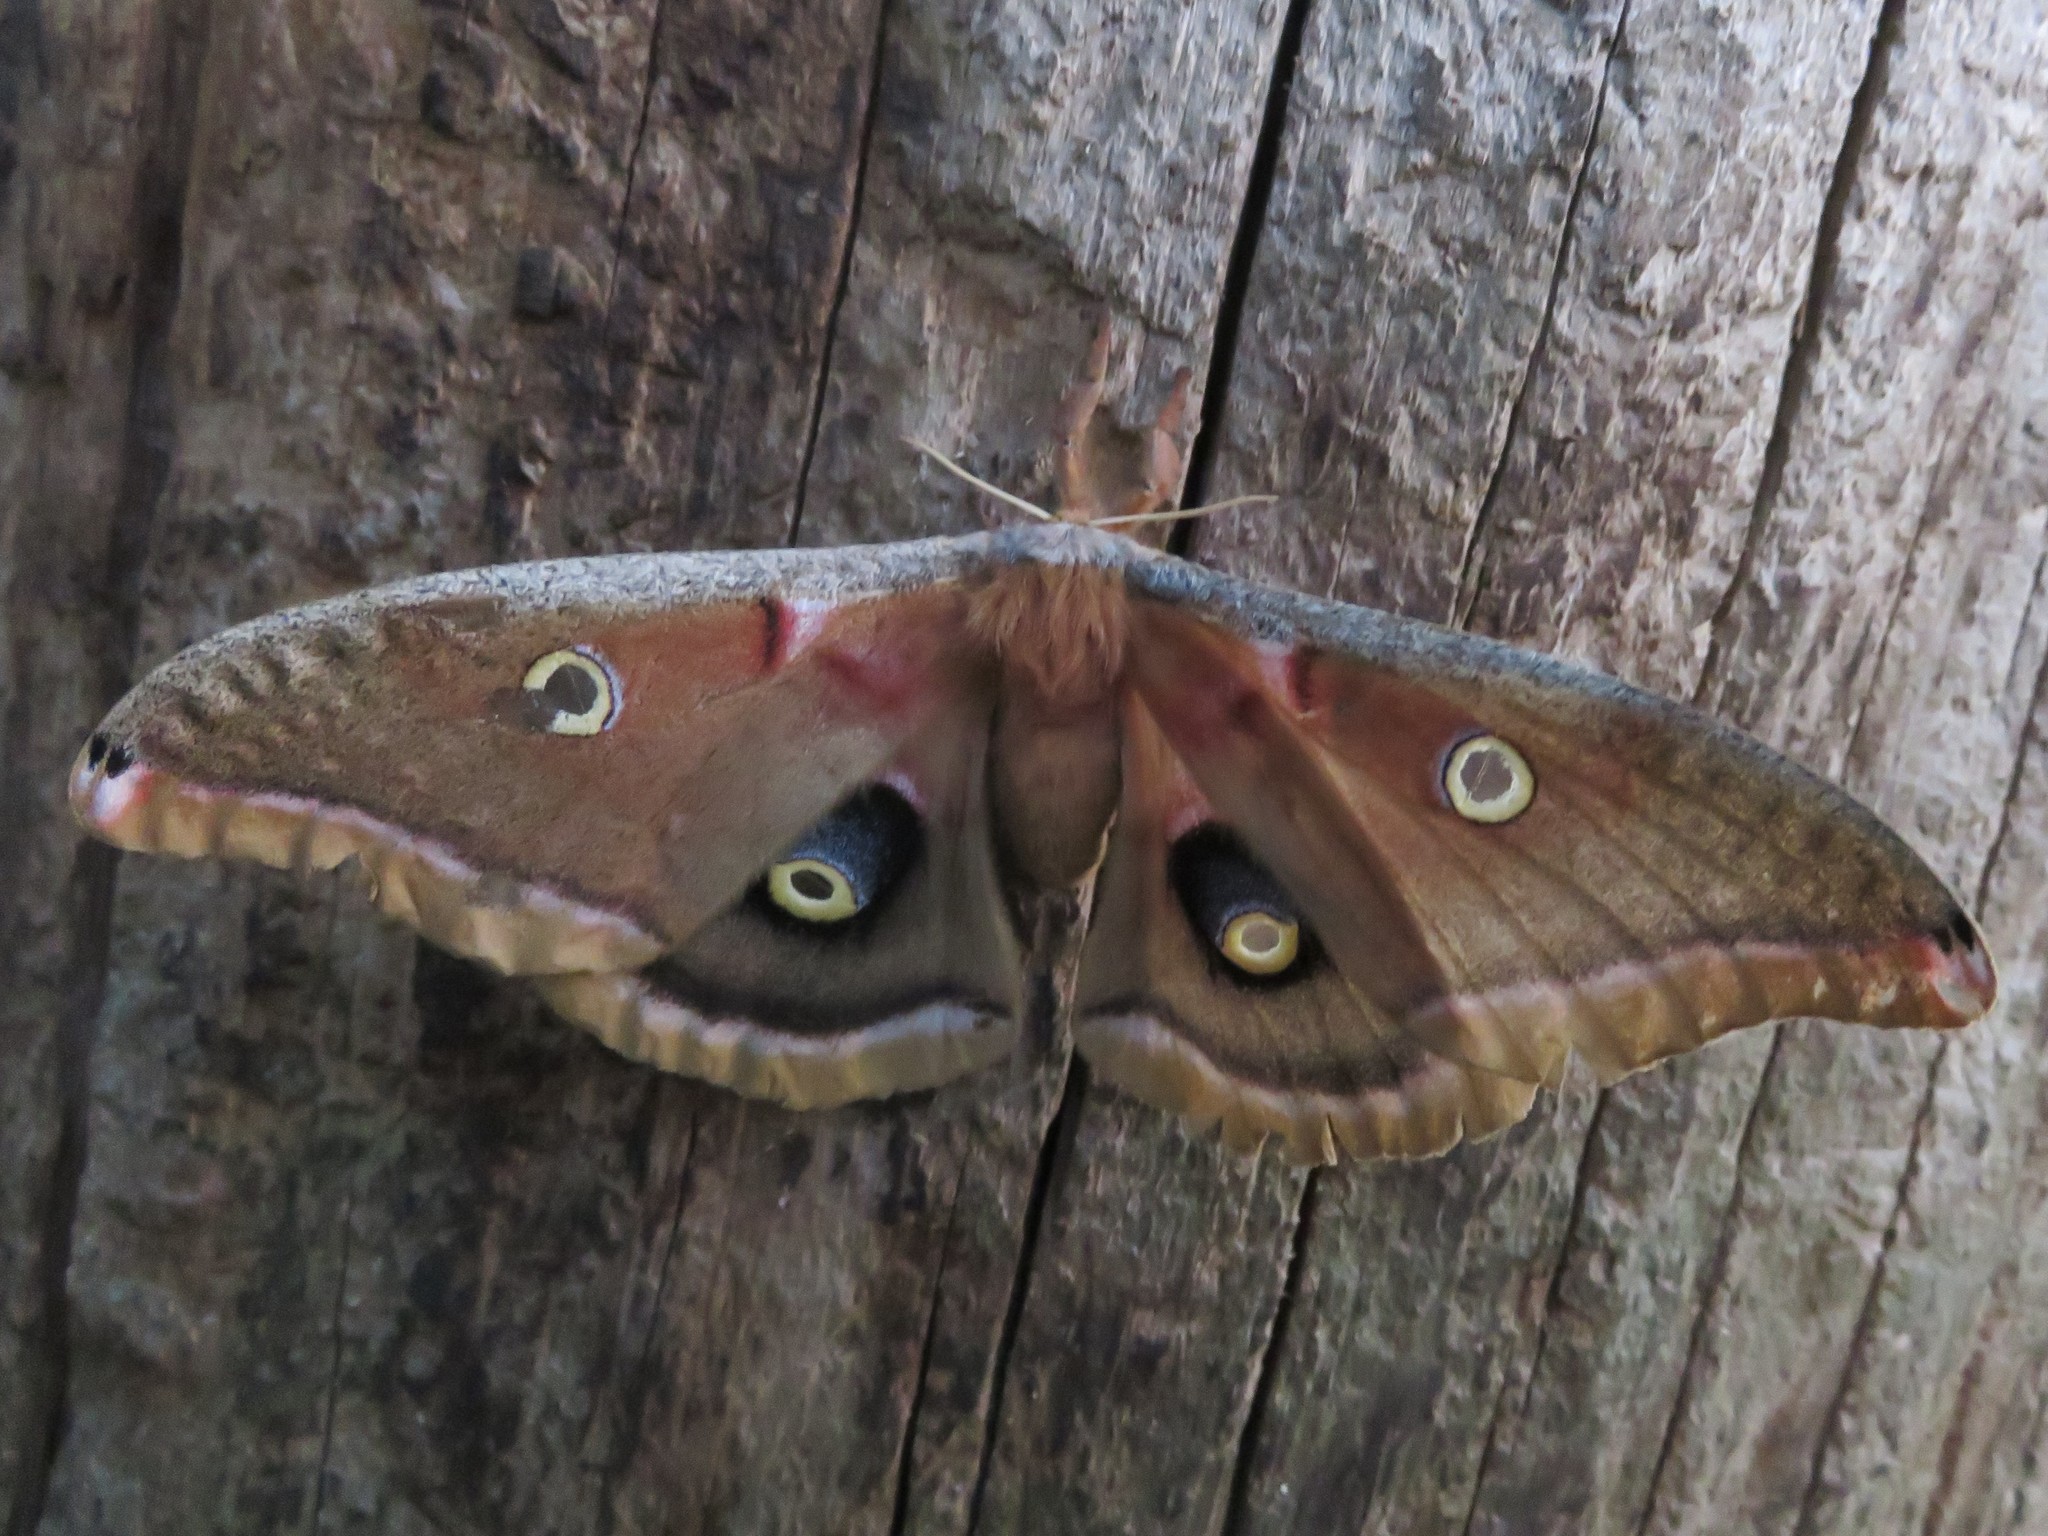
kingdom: Animalia
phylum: Arthropoda
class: Insecta
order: Lepidoptera
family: Saturniidae
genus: Antheraea
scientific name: Antheraea polyphemus
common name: Polyphemus moth
